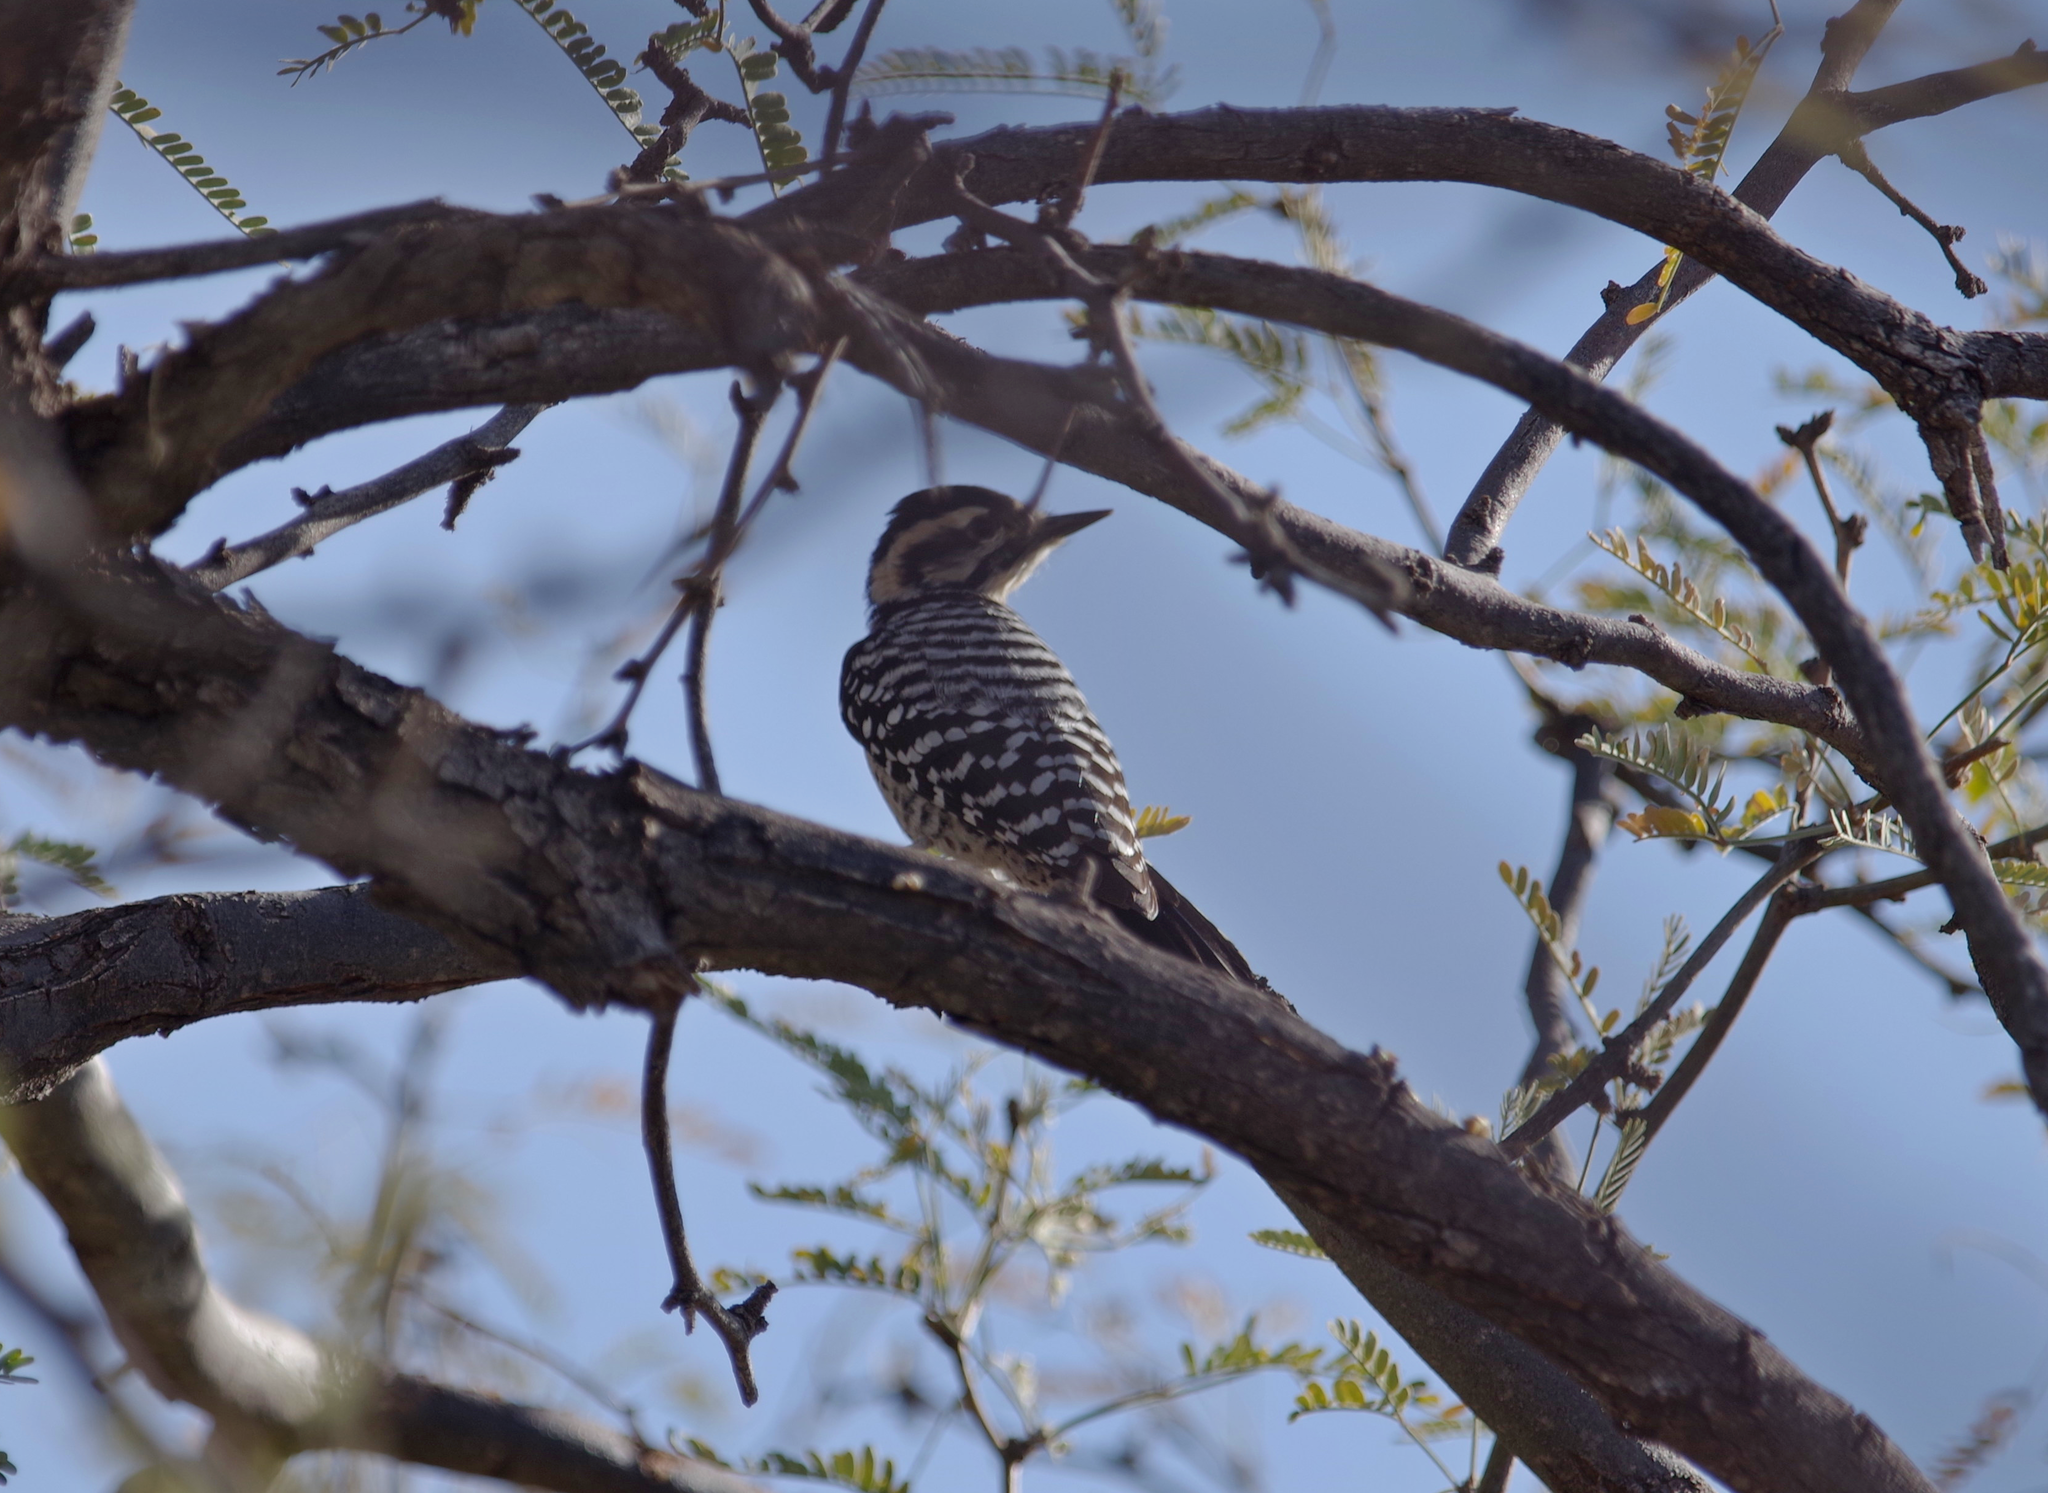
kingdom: Animalia
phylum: Chordata
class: Aves
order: Piciformes
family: Picidae
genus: Dryobates
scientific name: Dryobates scalaris
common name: Ladder-backed woodpecker
